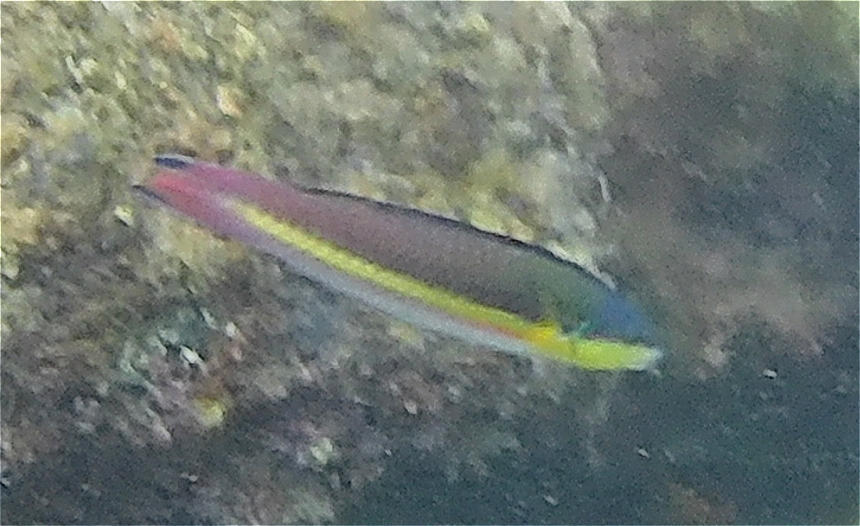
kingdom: Animalia
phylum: Chordata
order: Perciformes
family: Labridae
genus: Thalassoma
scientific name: Thalassoma lucasanum
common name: Cortez rainbow wrasse
